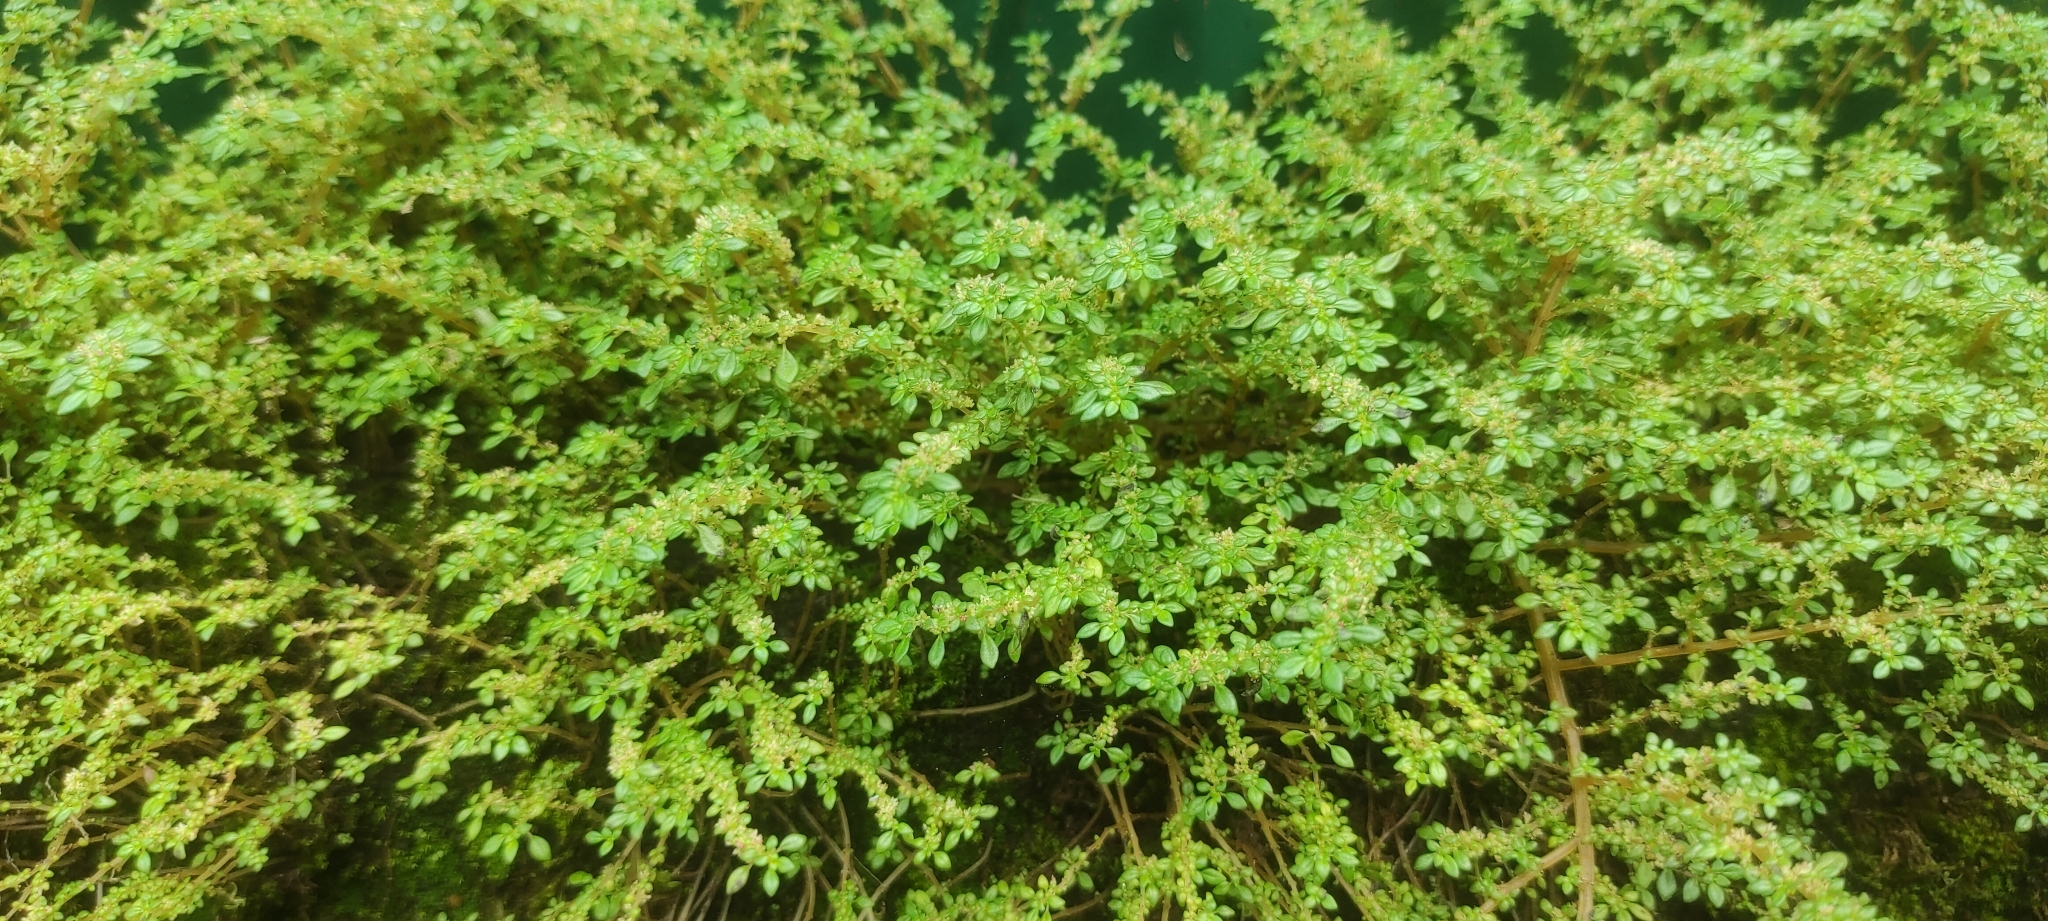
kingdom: Plantae
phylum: Tracheophyta
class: Magnoliopsida
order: Rosales
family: Urticaceae
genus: Pilea
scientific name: Pilea microphylla
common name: Artillery-plant
